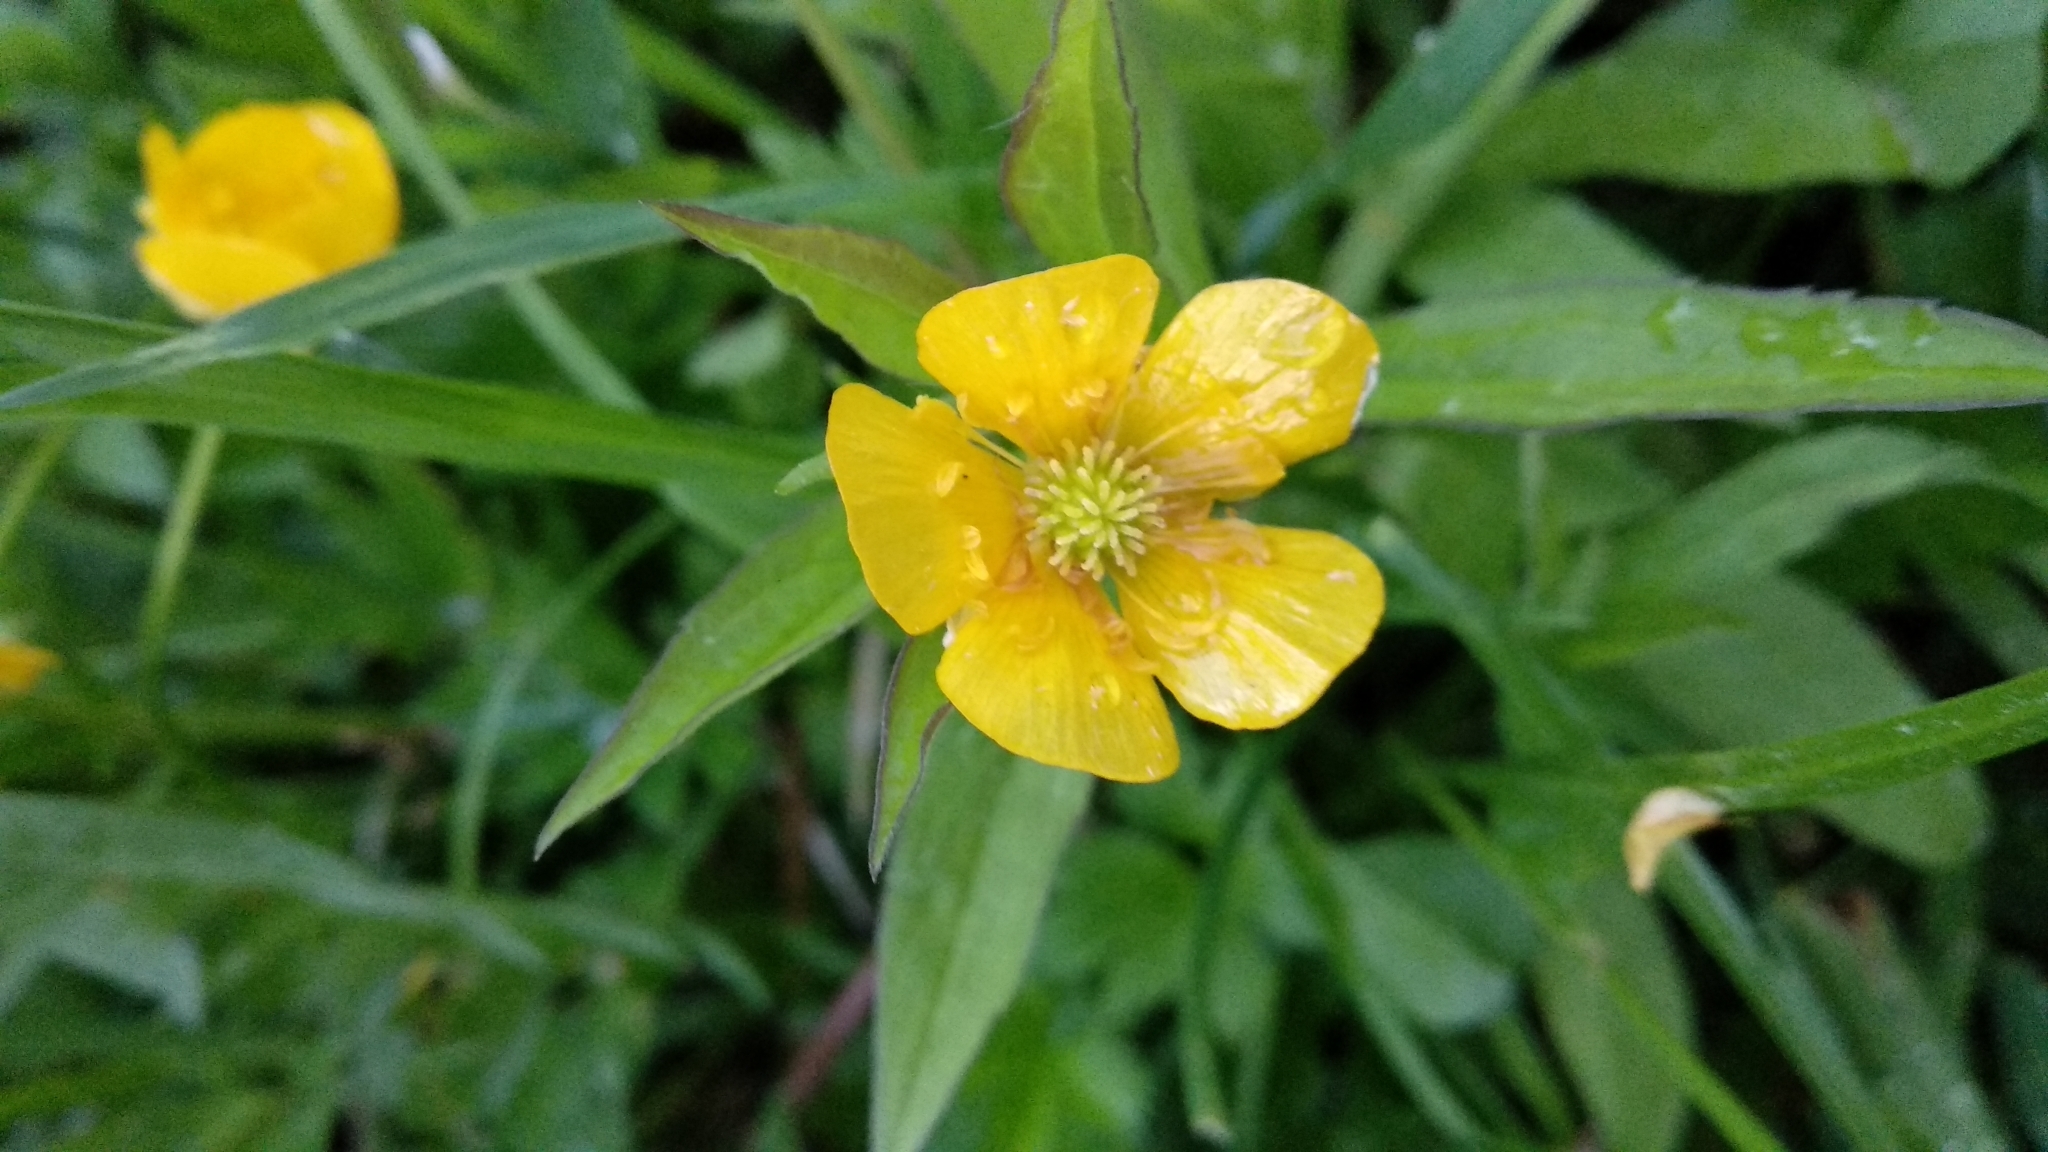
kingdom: Plantae
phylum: Tracheophyta
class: Magnoliopsida
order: Ranunculales
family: Ranunculaceae
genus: Ranunculus
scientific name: Ranunculus flammula
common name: Lesser spearwort
